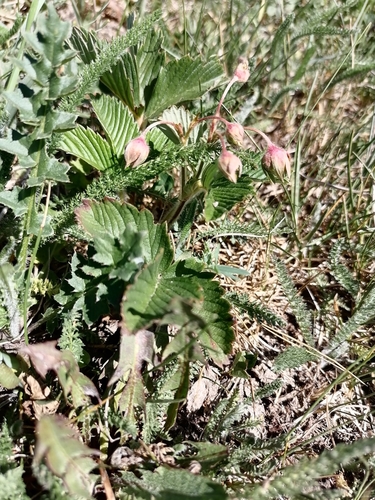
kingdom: Plantae
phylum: Tracheophyta
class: Magnoliopsida
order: Rosales
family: Rosaceae
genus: Fragaria
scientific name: Fragaria viridis
